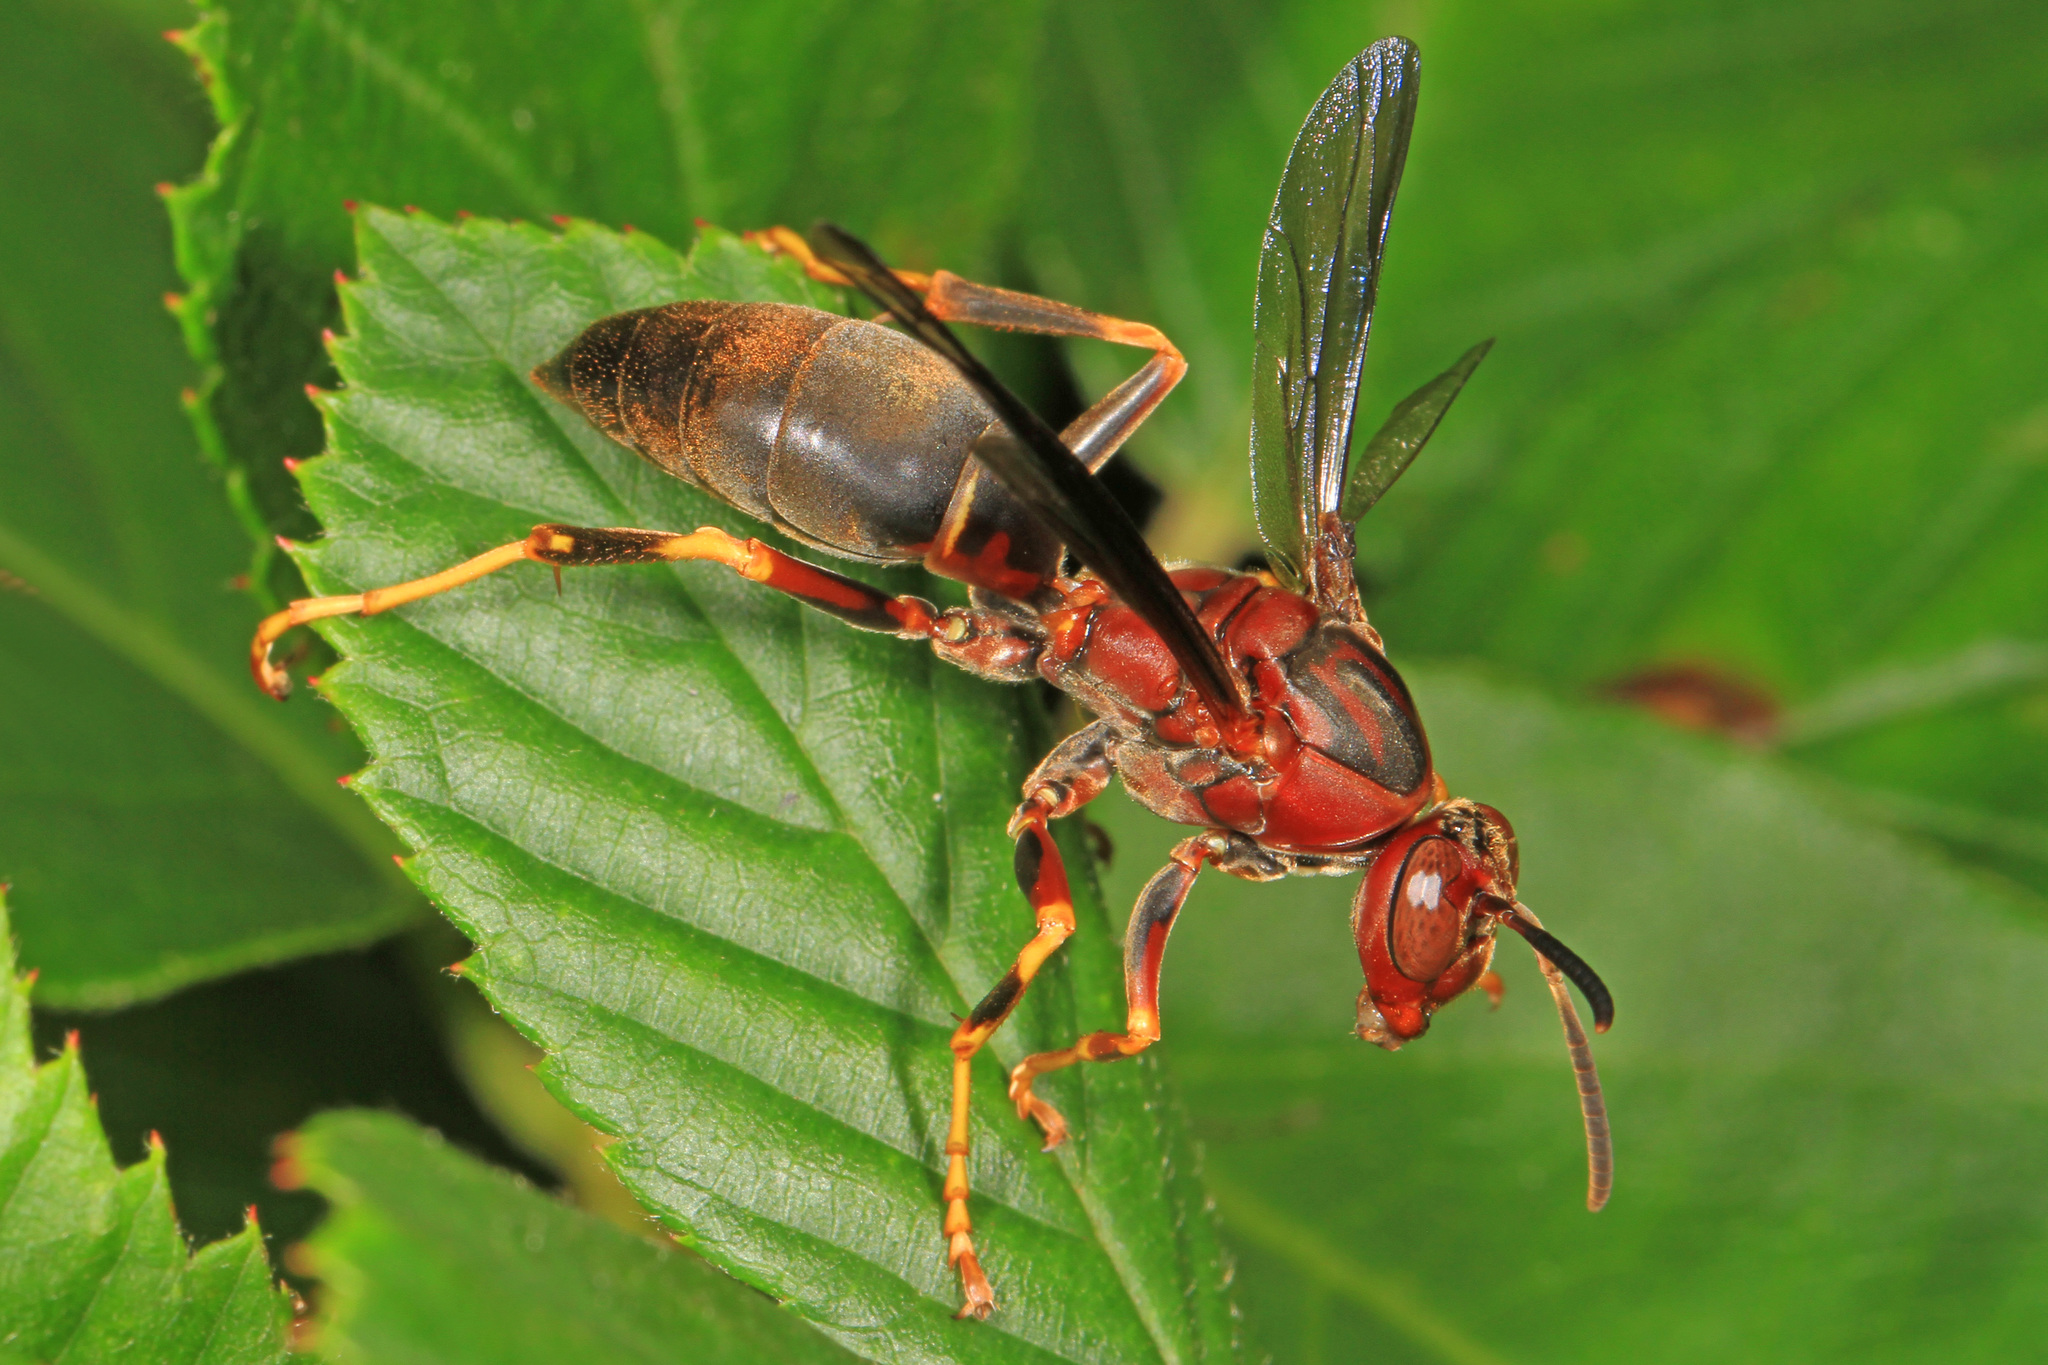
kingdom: Animalia
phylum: Arthropoda
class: Insecta
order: Hymenoptera
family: Eumenidae
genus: Polistes
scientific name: Polistes metricus
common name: Metric paper wasp
